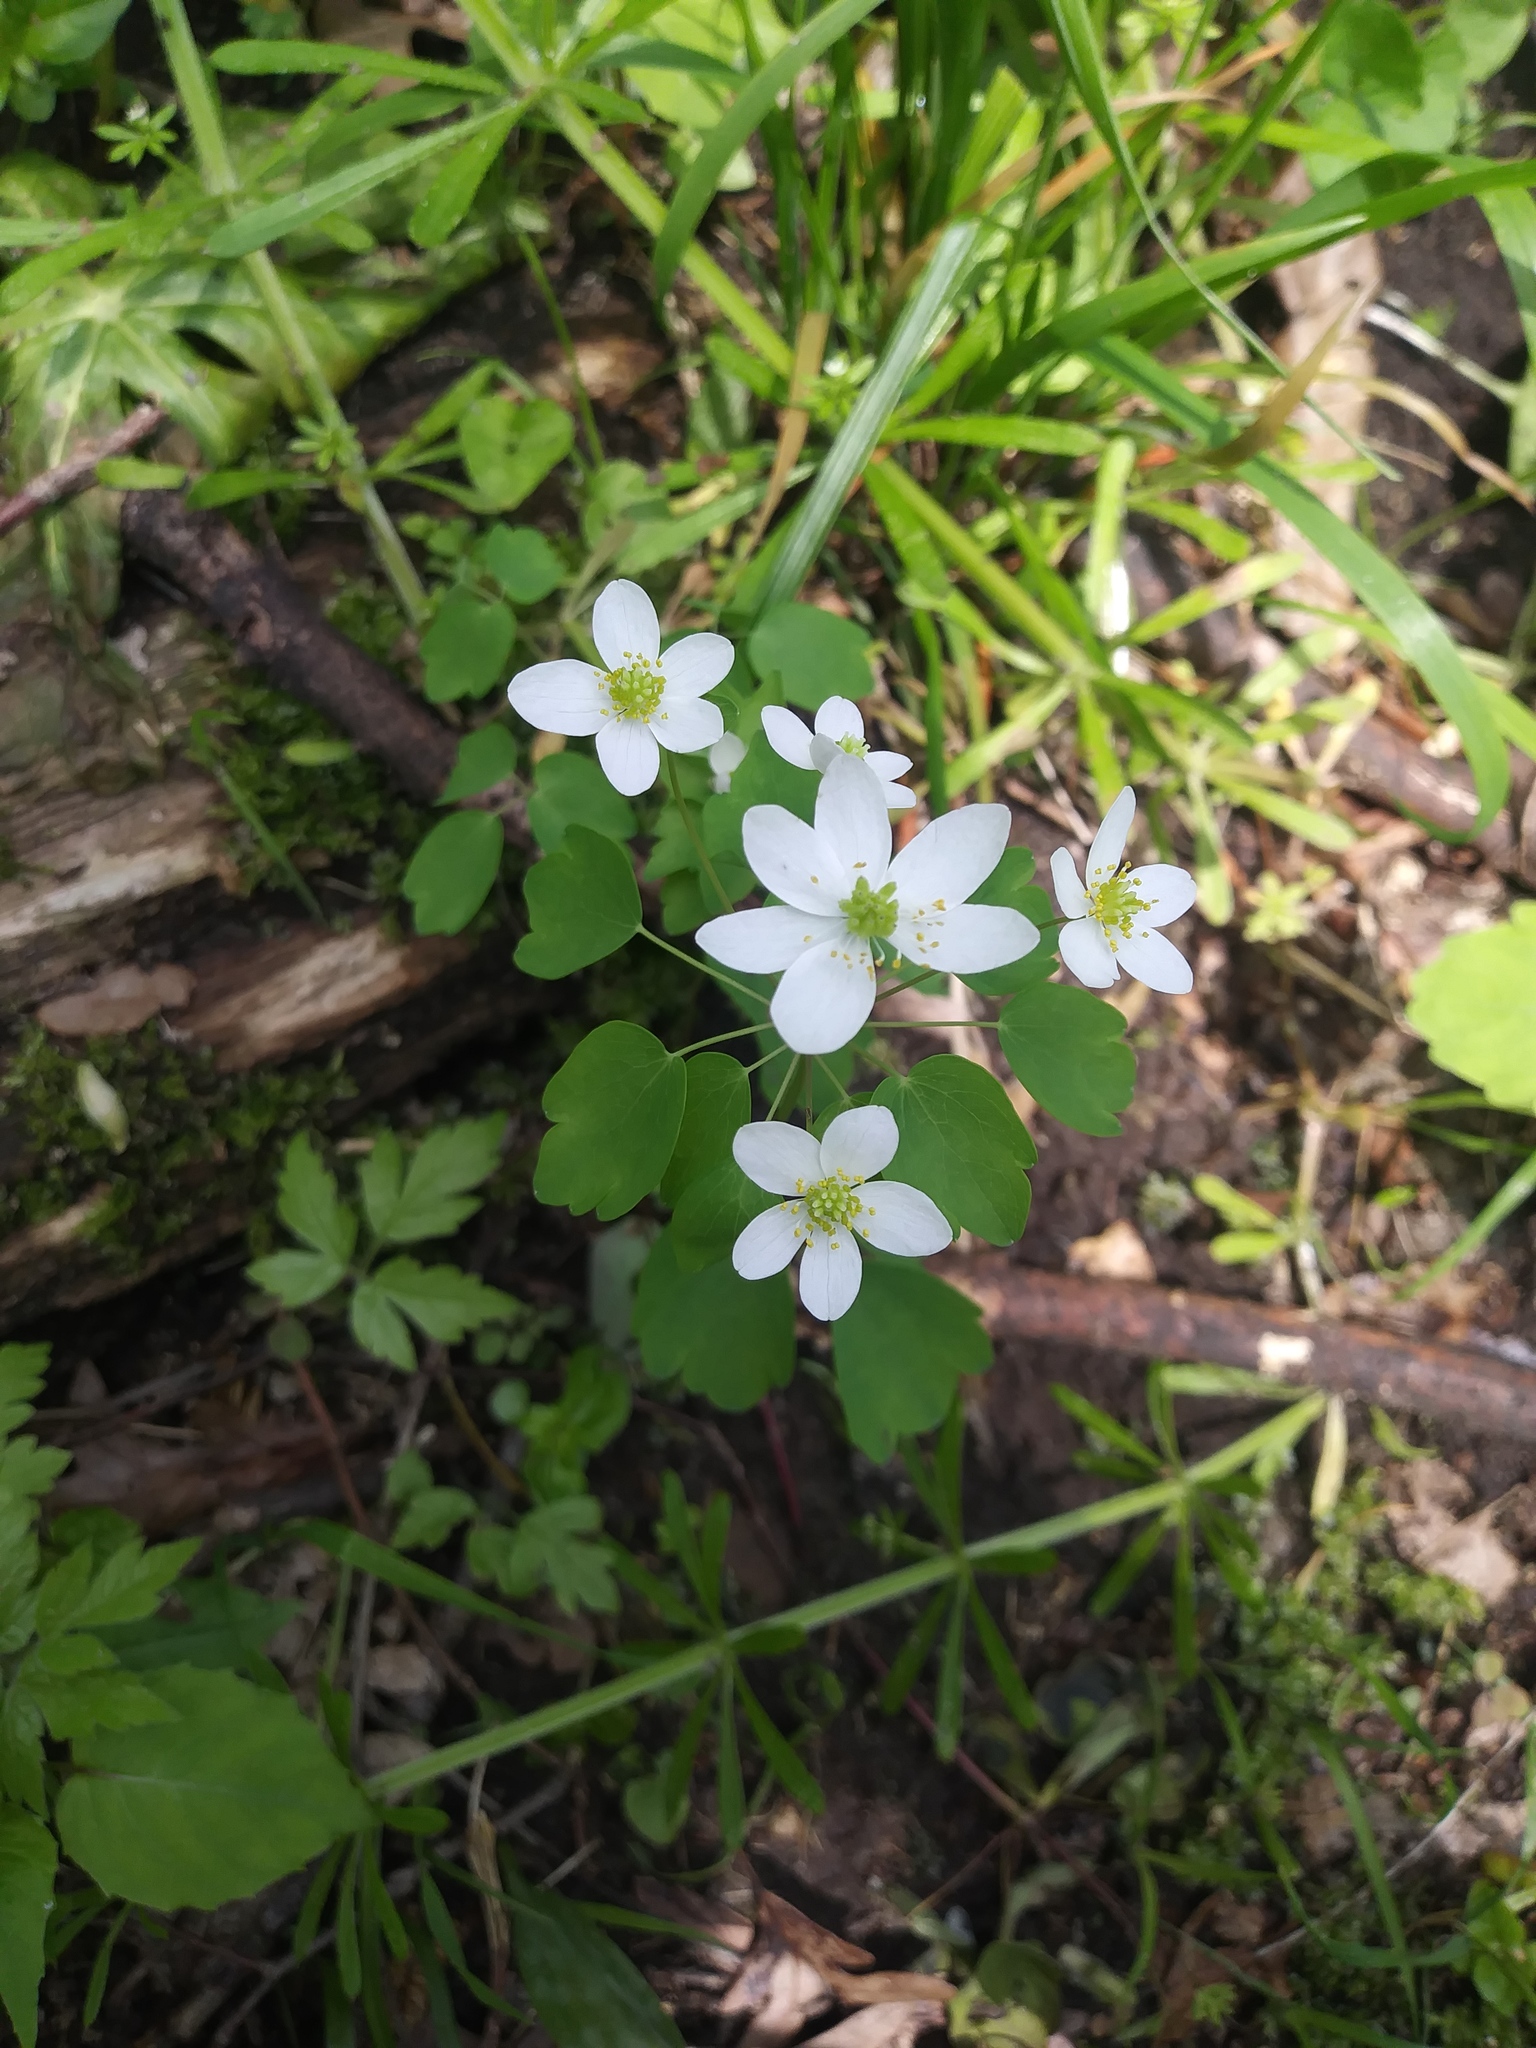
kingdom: Plantae
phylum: Tracheophyta
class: Magnoliopsida
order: Ranunculales
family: Ranunculaceae
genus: Thalictrum
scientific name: Thalictrum thalictroides
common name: Rue-anemone
